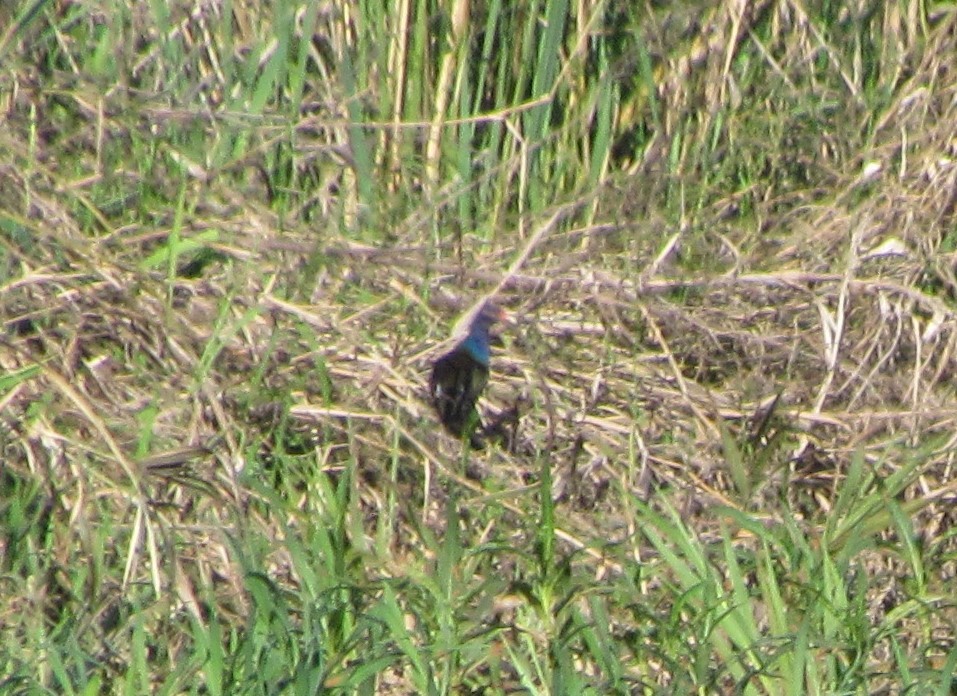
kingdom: Animalia
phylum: Chordata
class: Aves
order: Gruiformes
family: Rallidae
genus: Porphyrio
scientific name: Porphyrio martinica
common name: Purple gallinule
